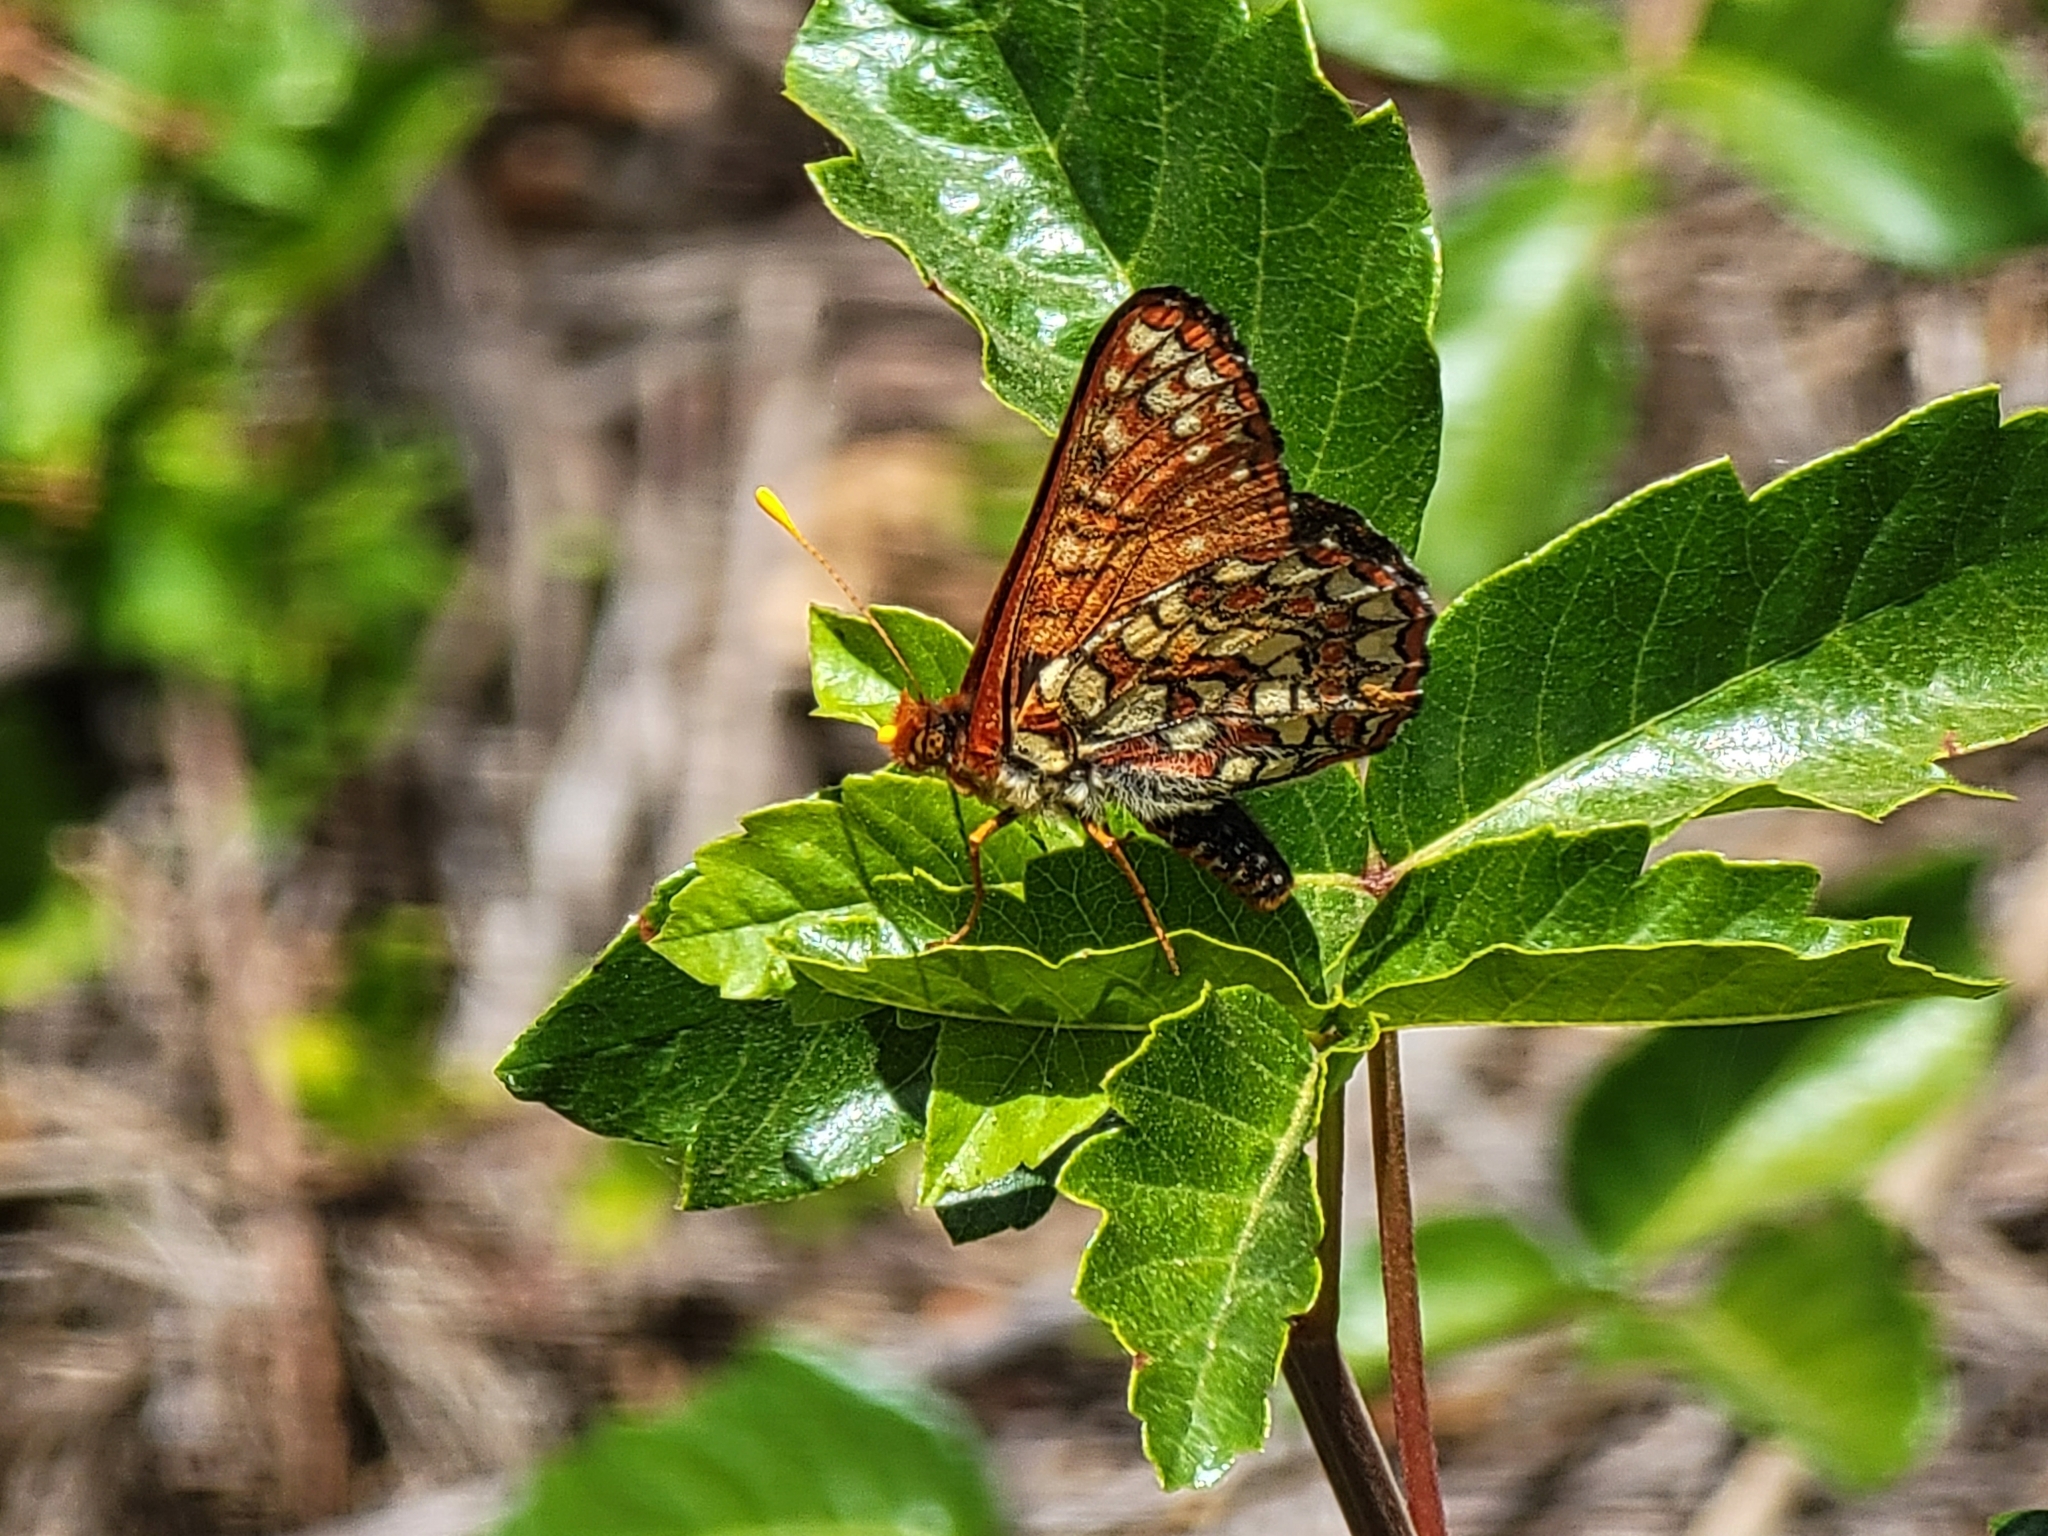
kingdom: Animalia
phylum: Arthropoda
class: Insecta
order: Lepidoptera
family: Nymphalidae
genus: Occidryas
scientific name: Occidryas chalcedona
